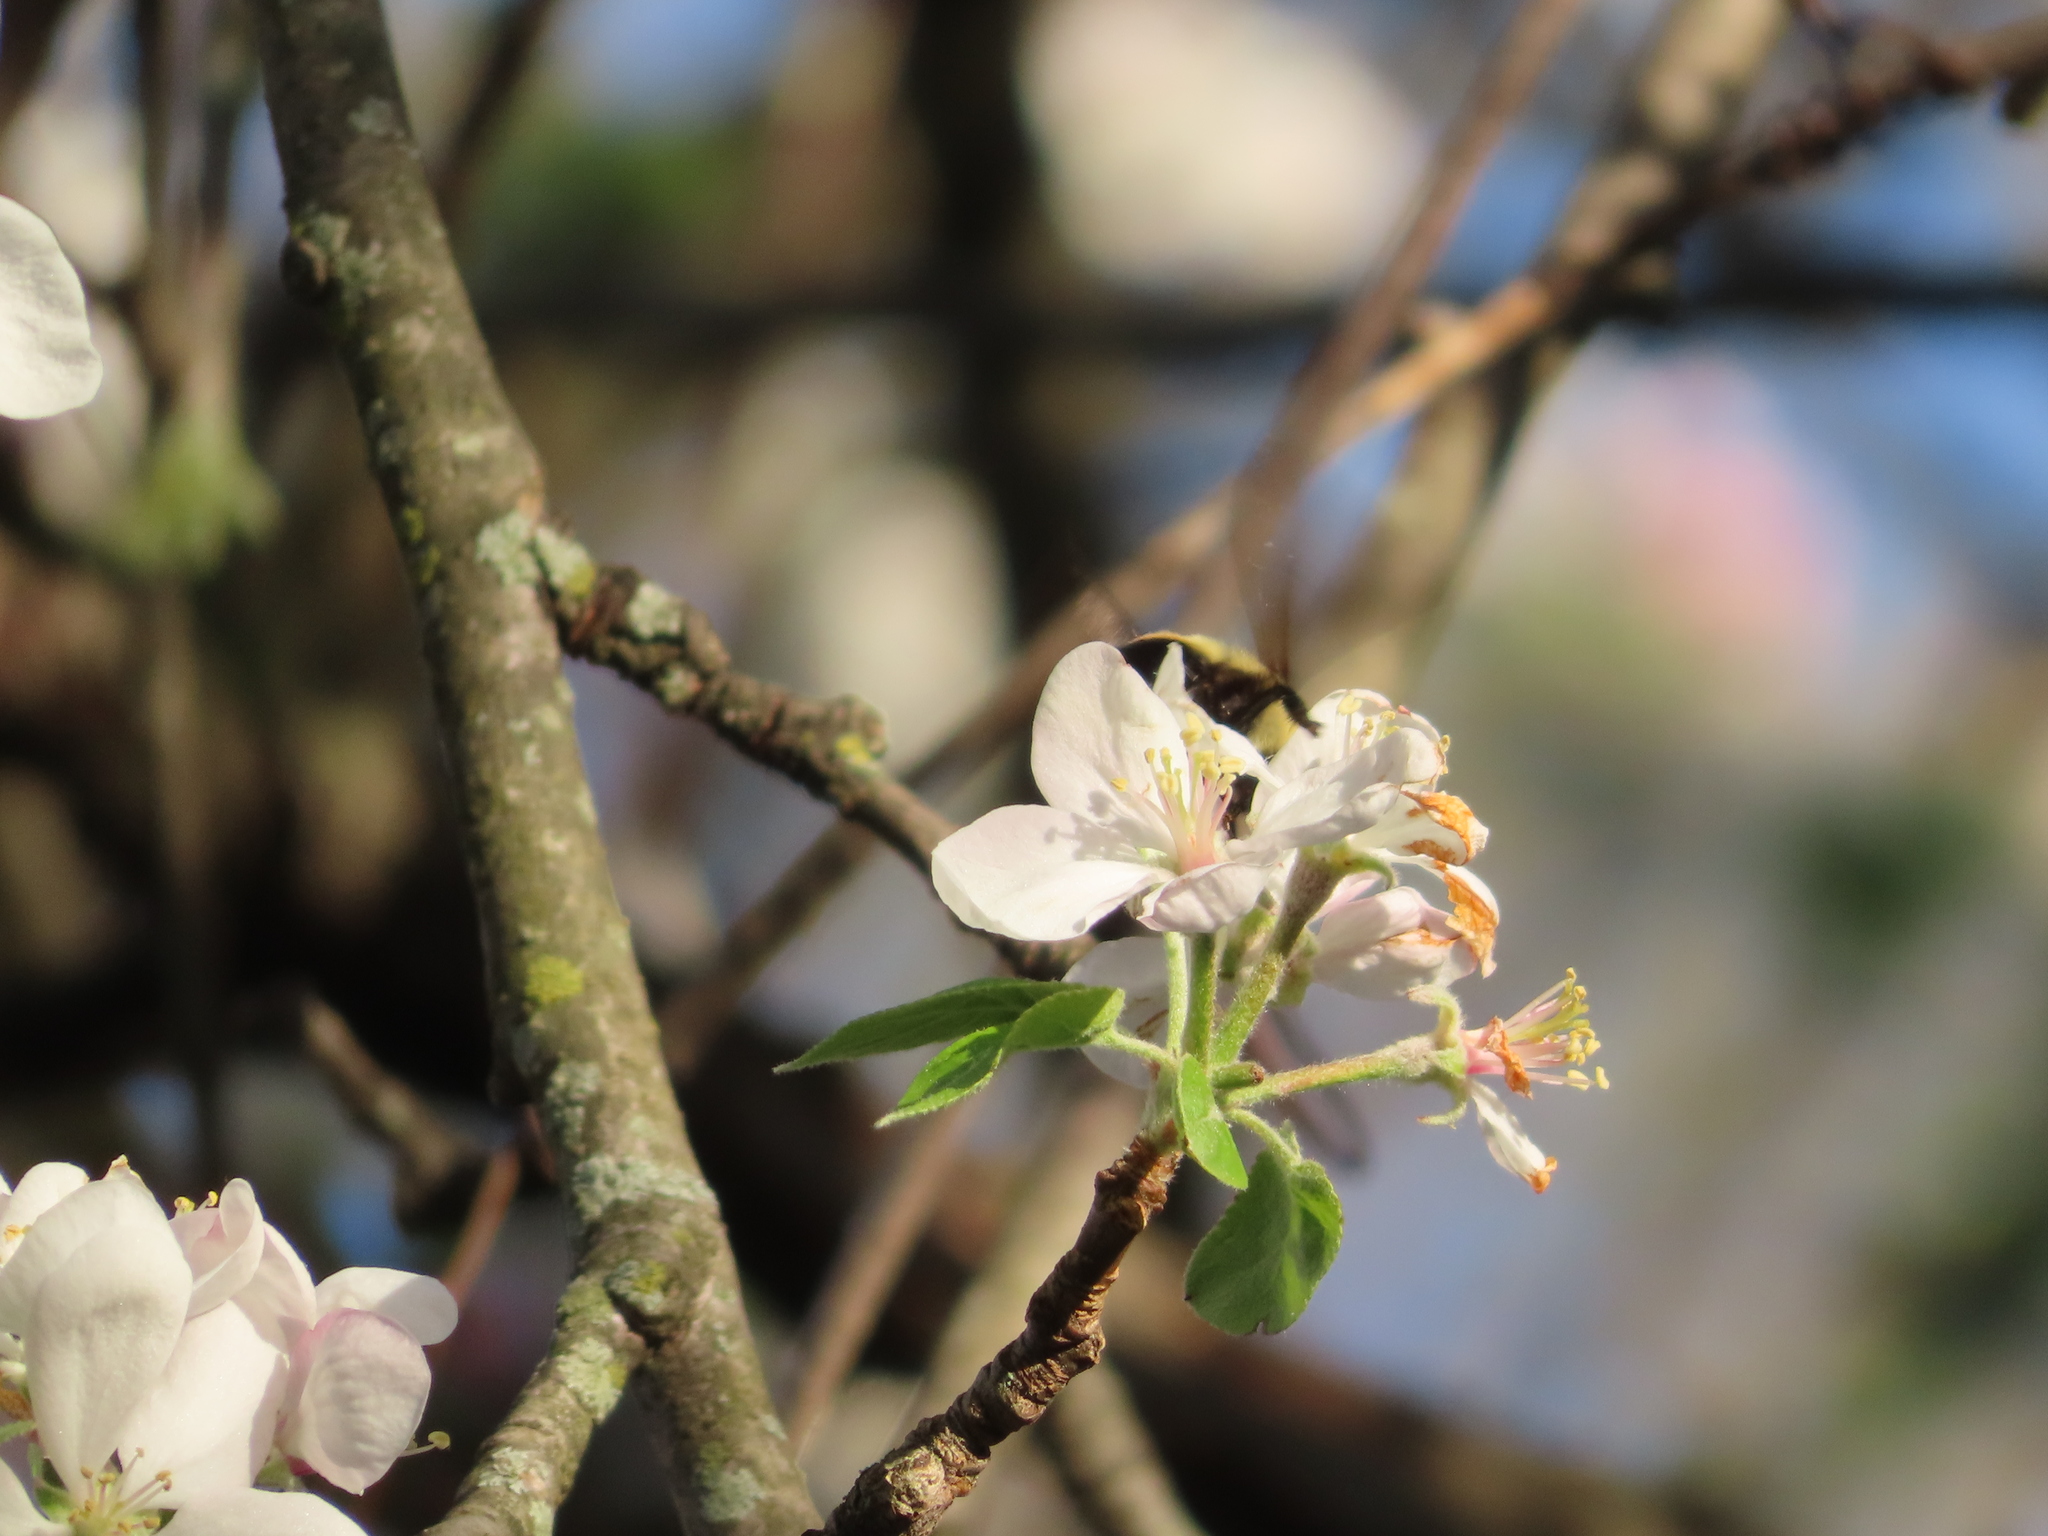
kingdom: Animalia
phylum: Arthropoda
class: Insecta
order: Hymenoptera
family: Apidae
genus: Bombus
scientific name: Bombus griseocollis
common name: Brown-belted bumble bee
